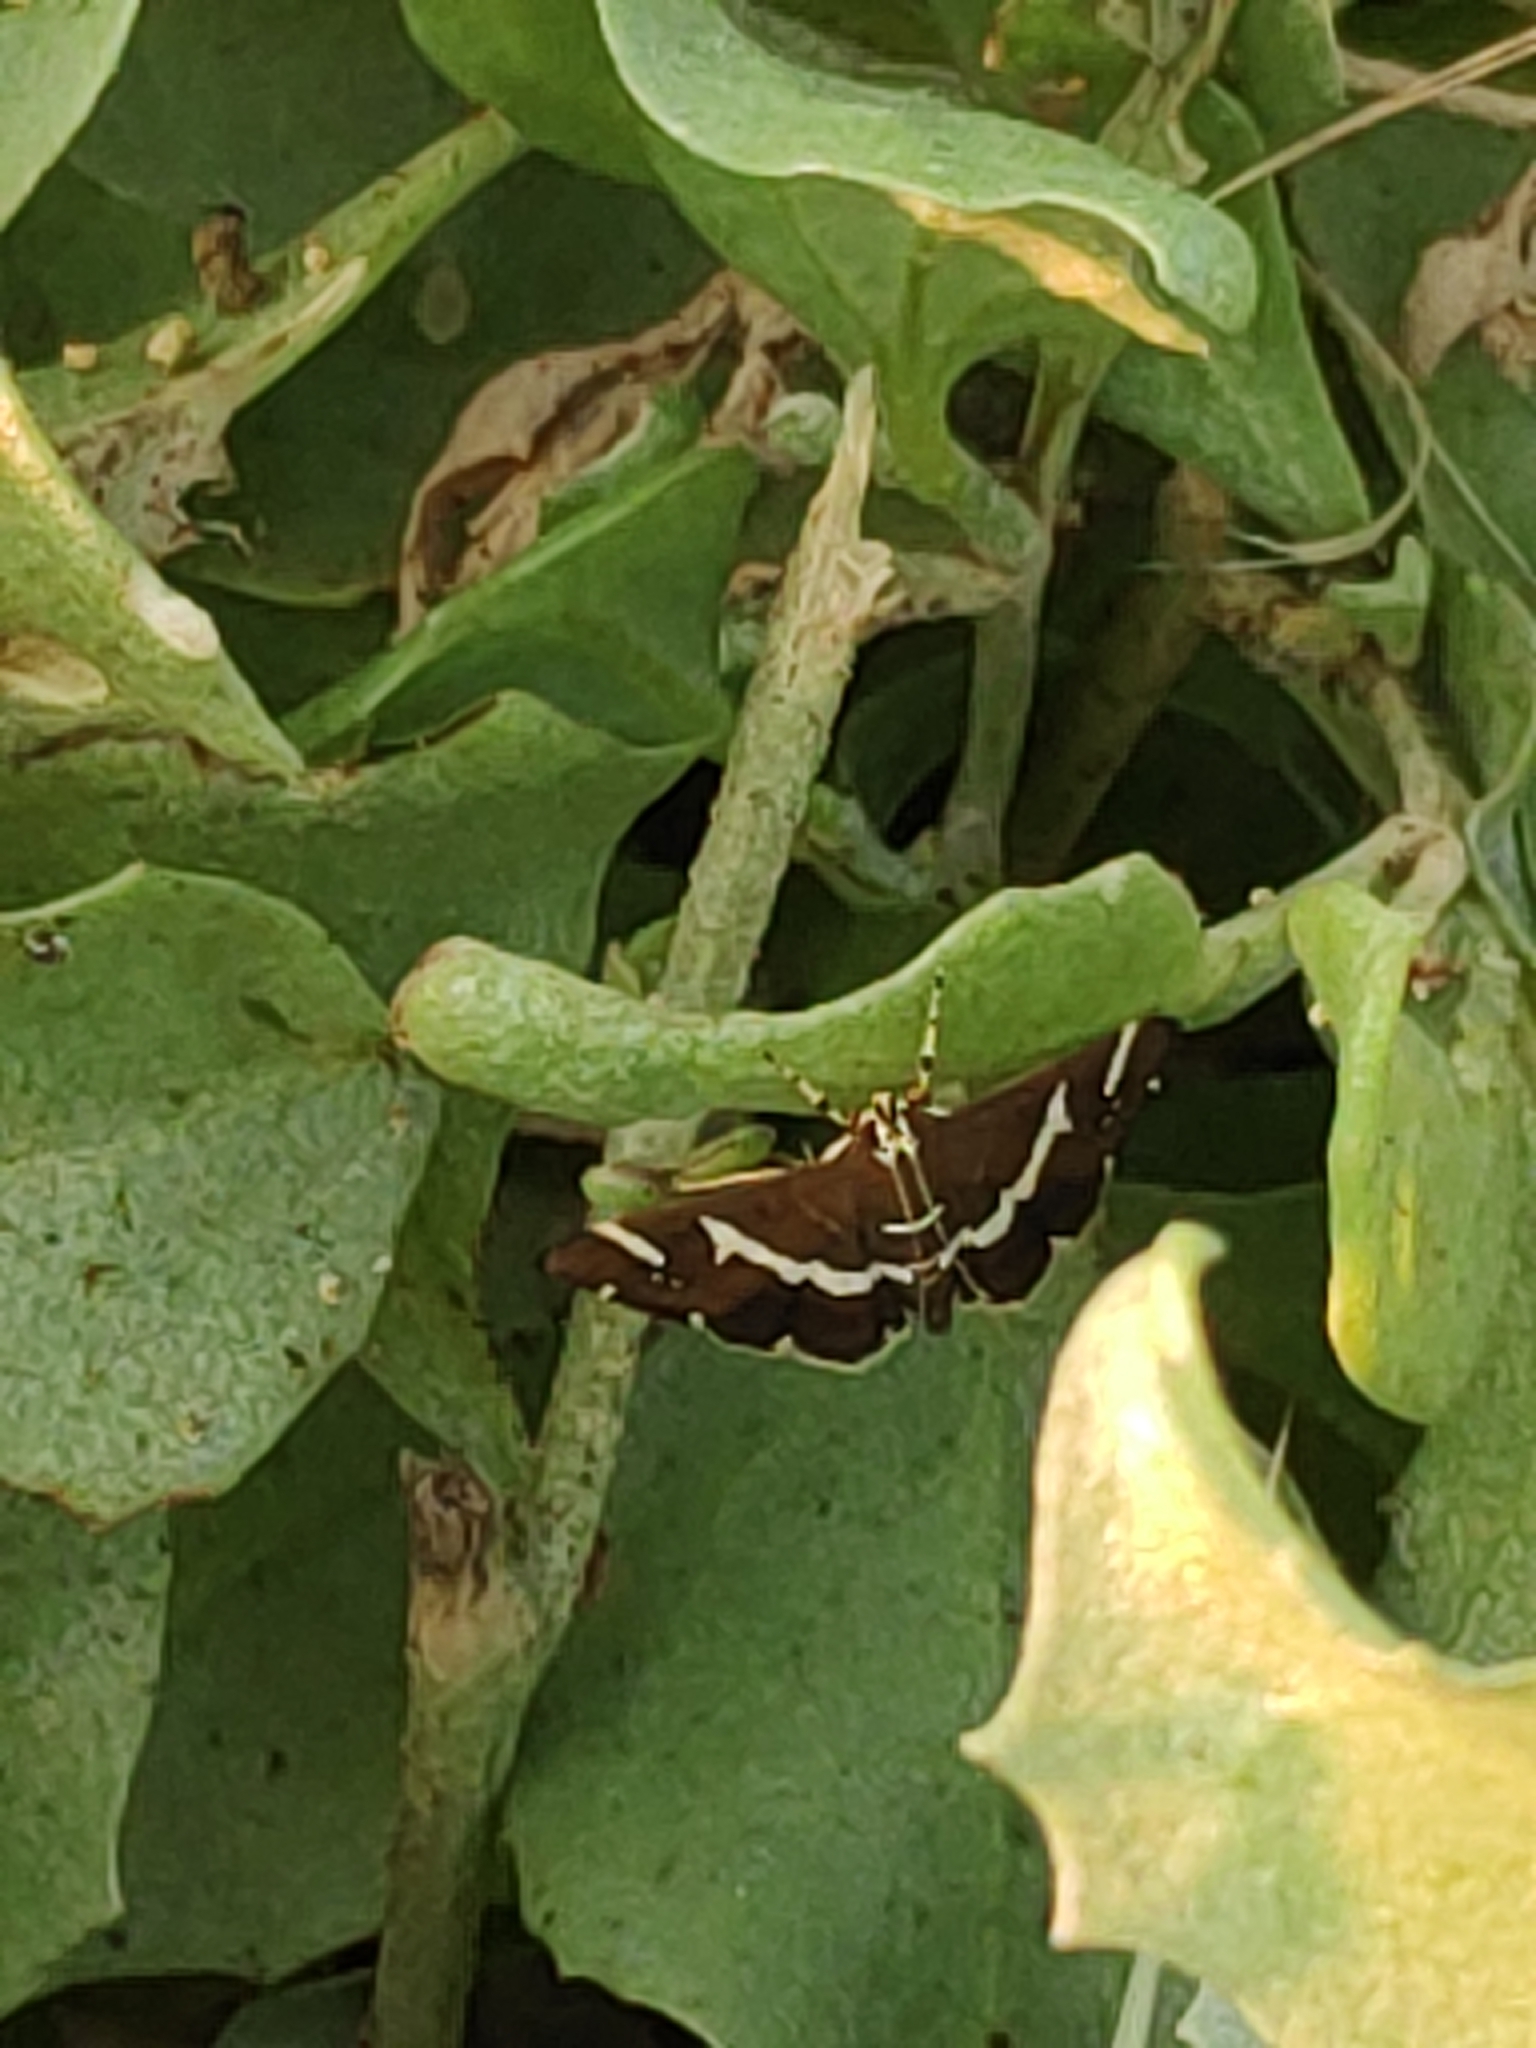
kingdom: Animalia
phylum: Arthropoda
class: Insecta
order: Lepidoptera
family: Crambidae
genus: Spoladea
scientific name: Spoladea recurvalis
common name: Beet webworm moth
